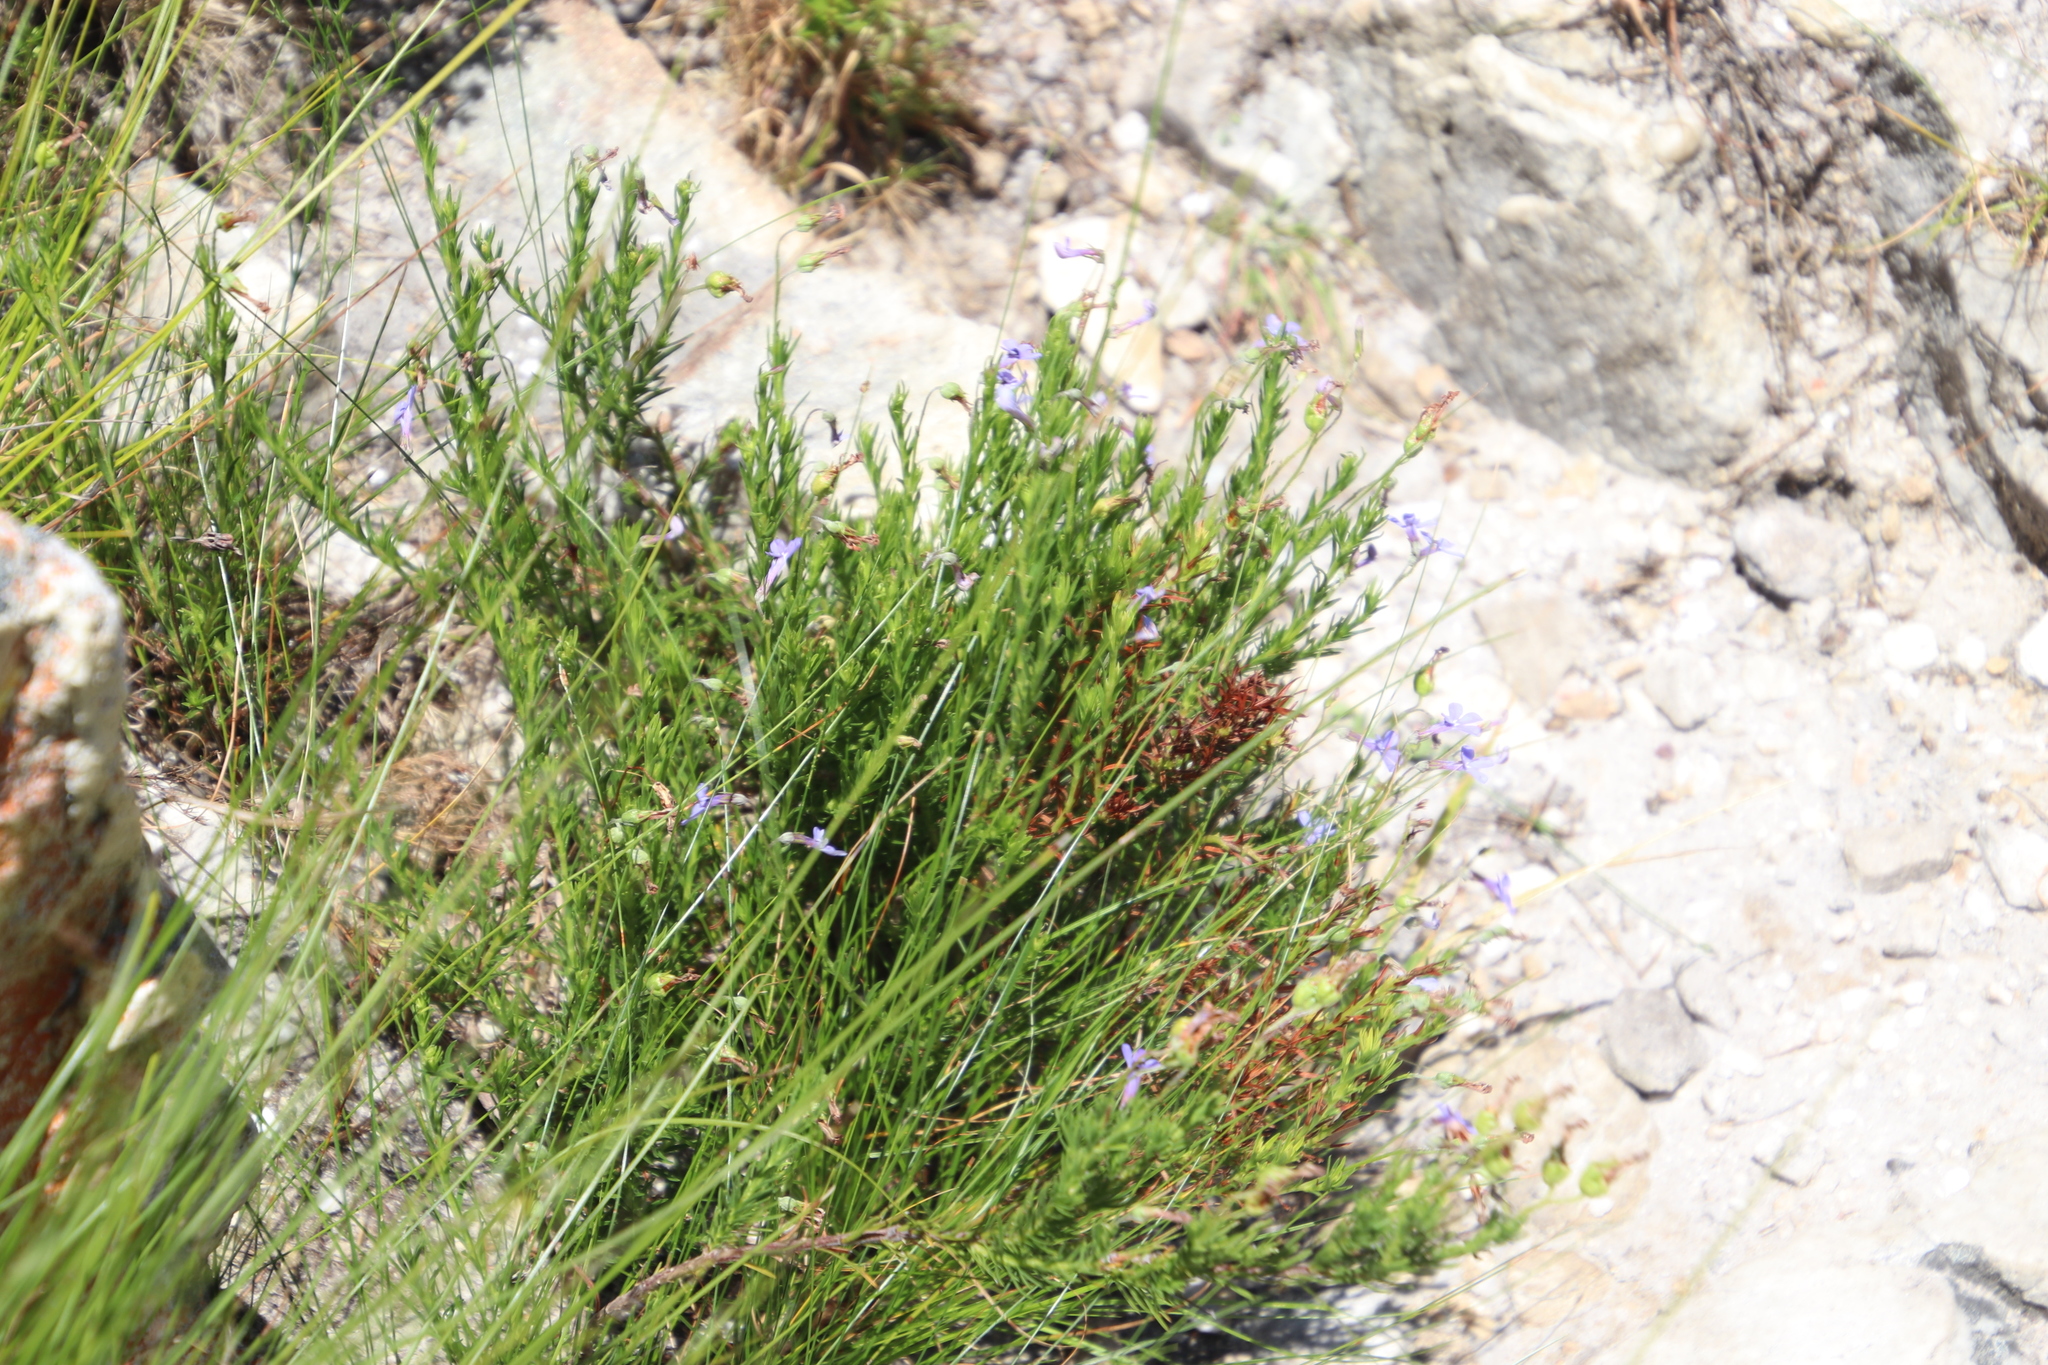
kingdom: Plantae
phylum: Tracheophyta
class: Magnoliopsida
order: Asterales
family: Campanulaceae
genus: Lobelia
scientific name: Lobelia pinifolia
